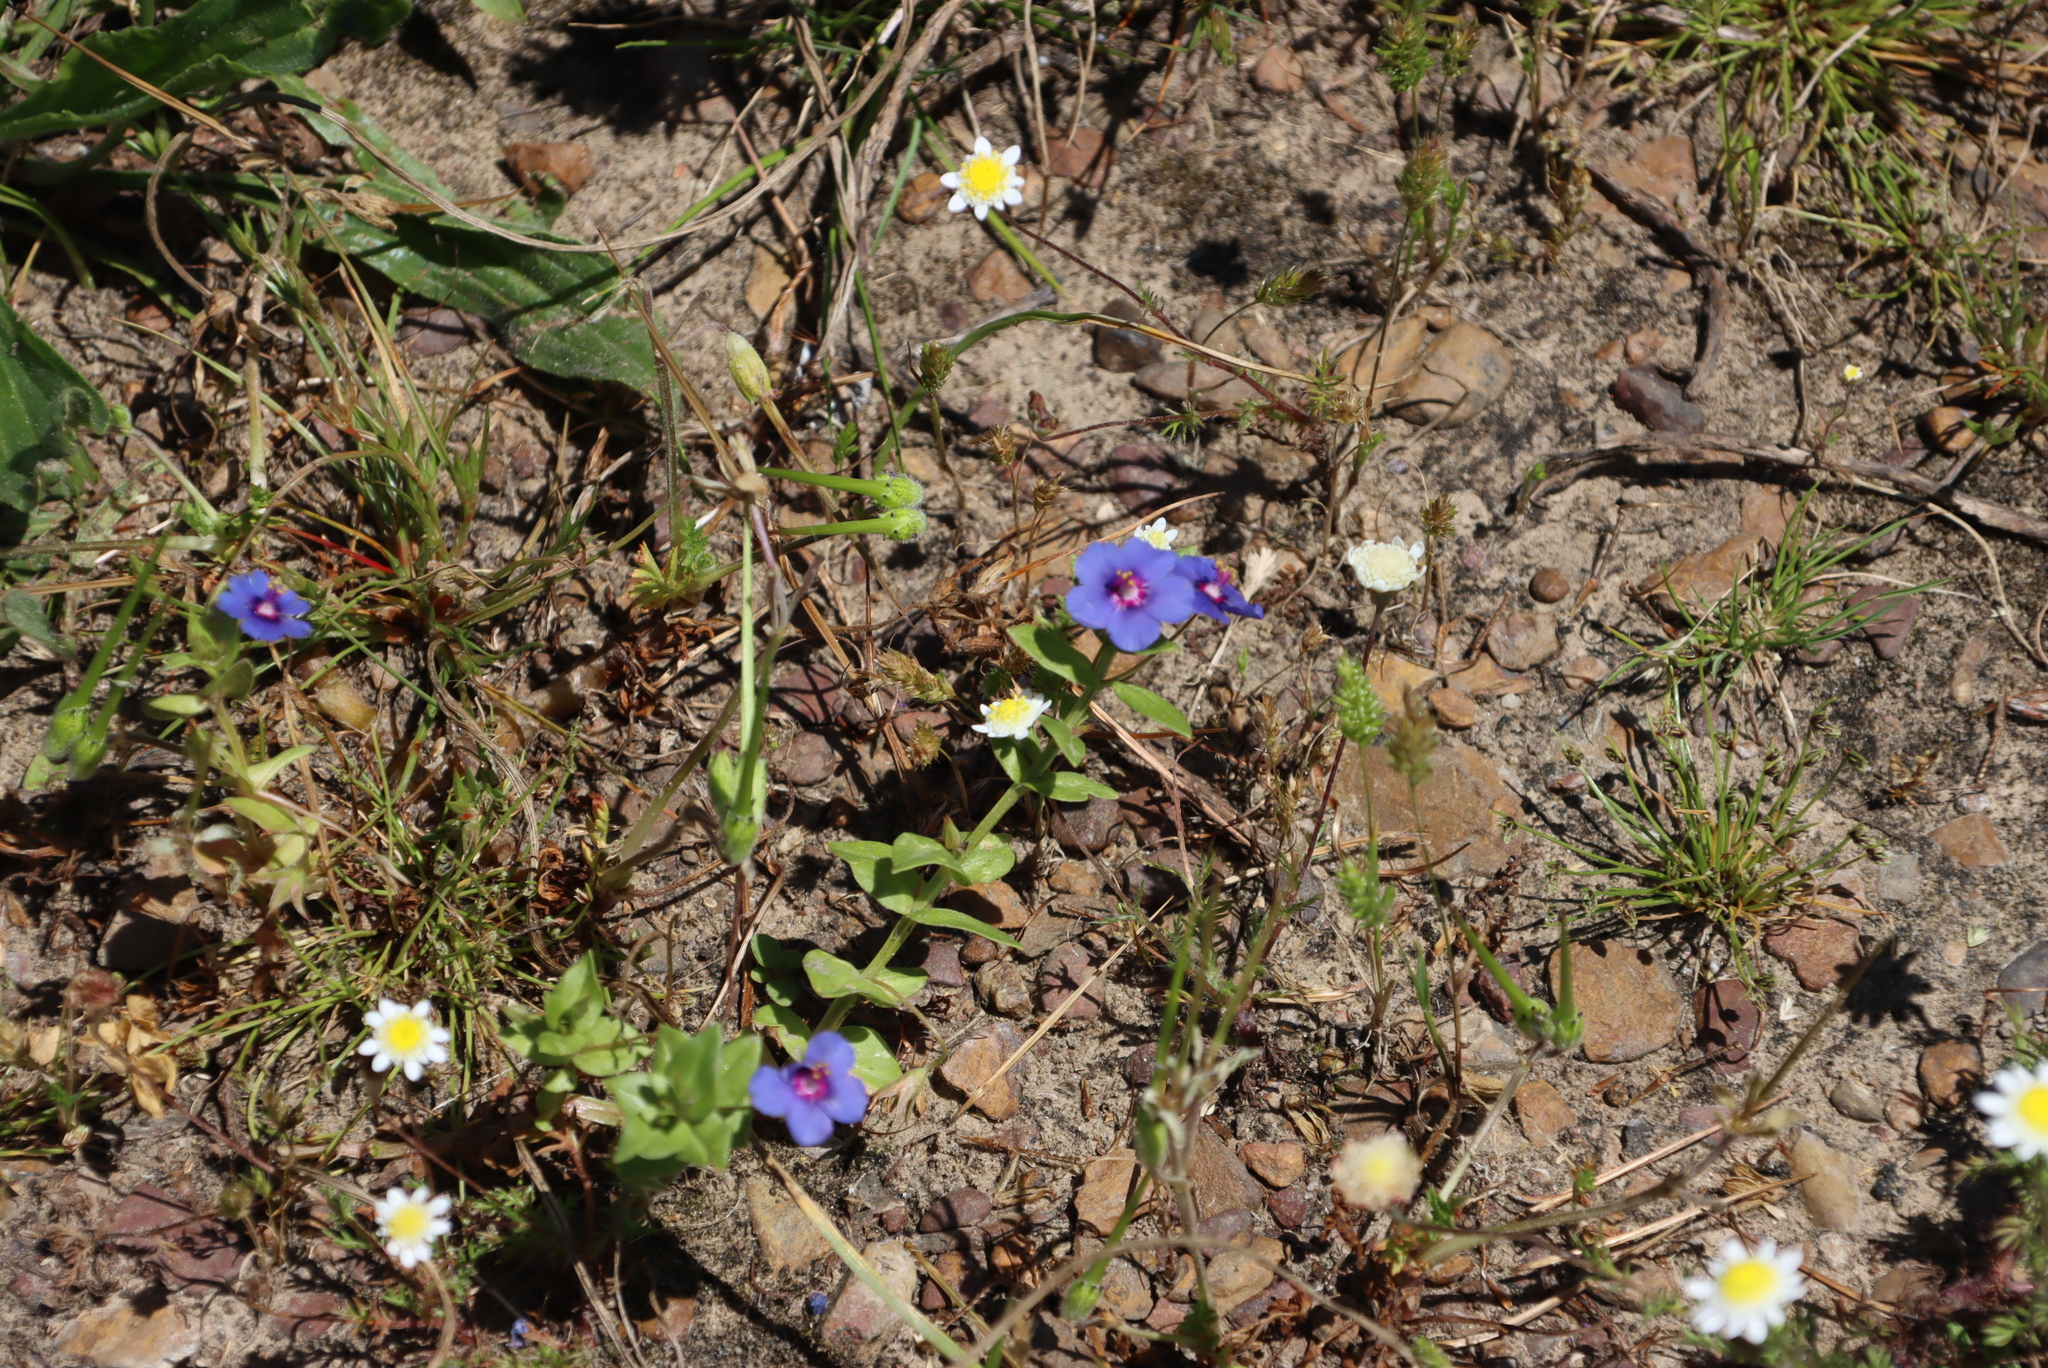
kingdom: Plantae
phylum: Tracheophyta
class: Magnoliopsida
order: Ericales
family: Primulaceae
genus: Lysimachia
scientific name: Lysimachia loeflingii
